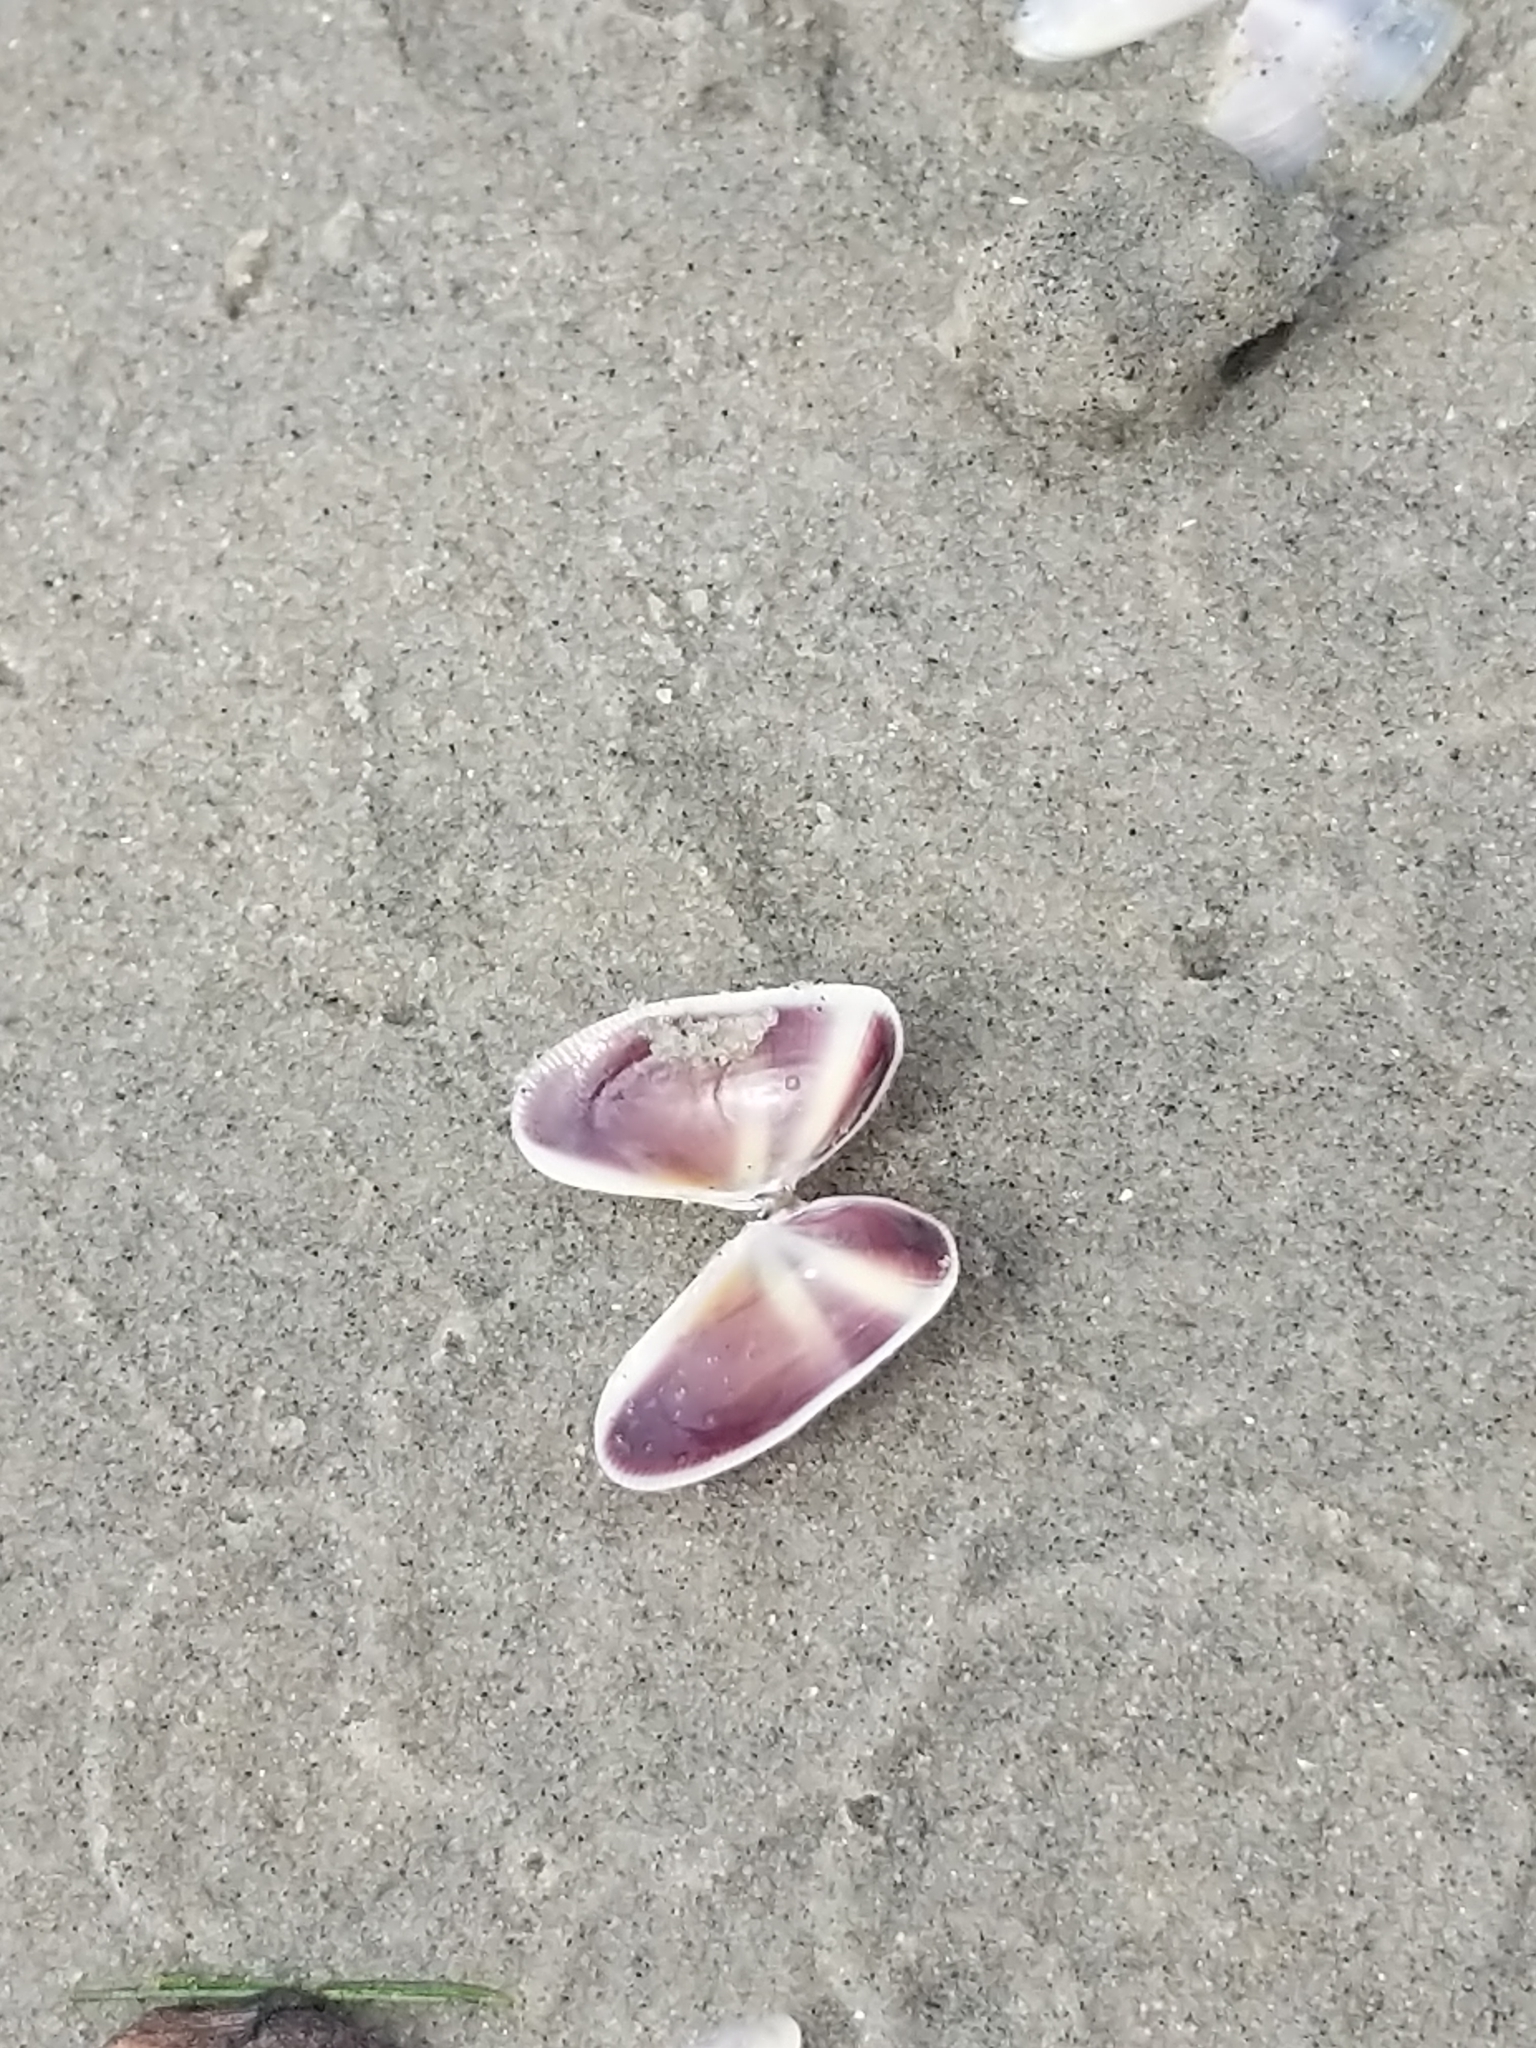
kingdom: Animalia
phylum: Mollusca
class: Bivalvia
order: Cardiida
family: Donacidae
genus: Donax
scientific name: Donax fossor
